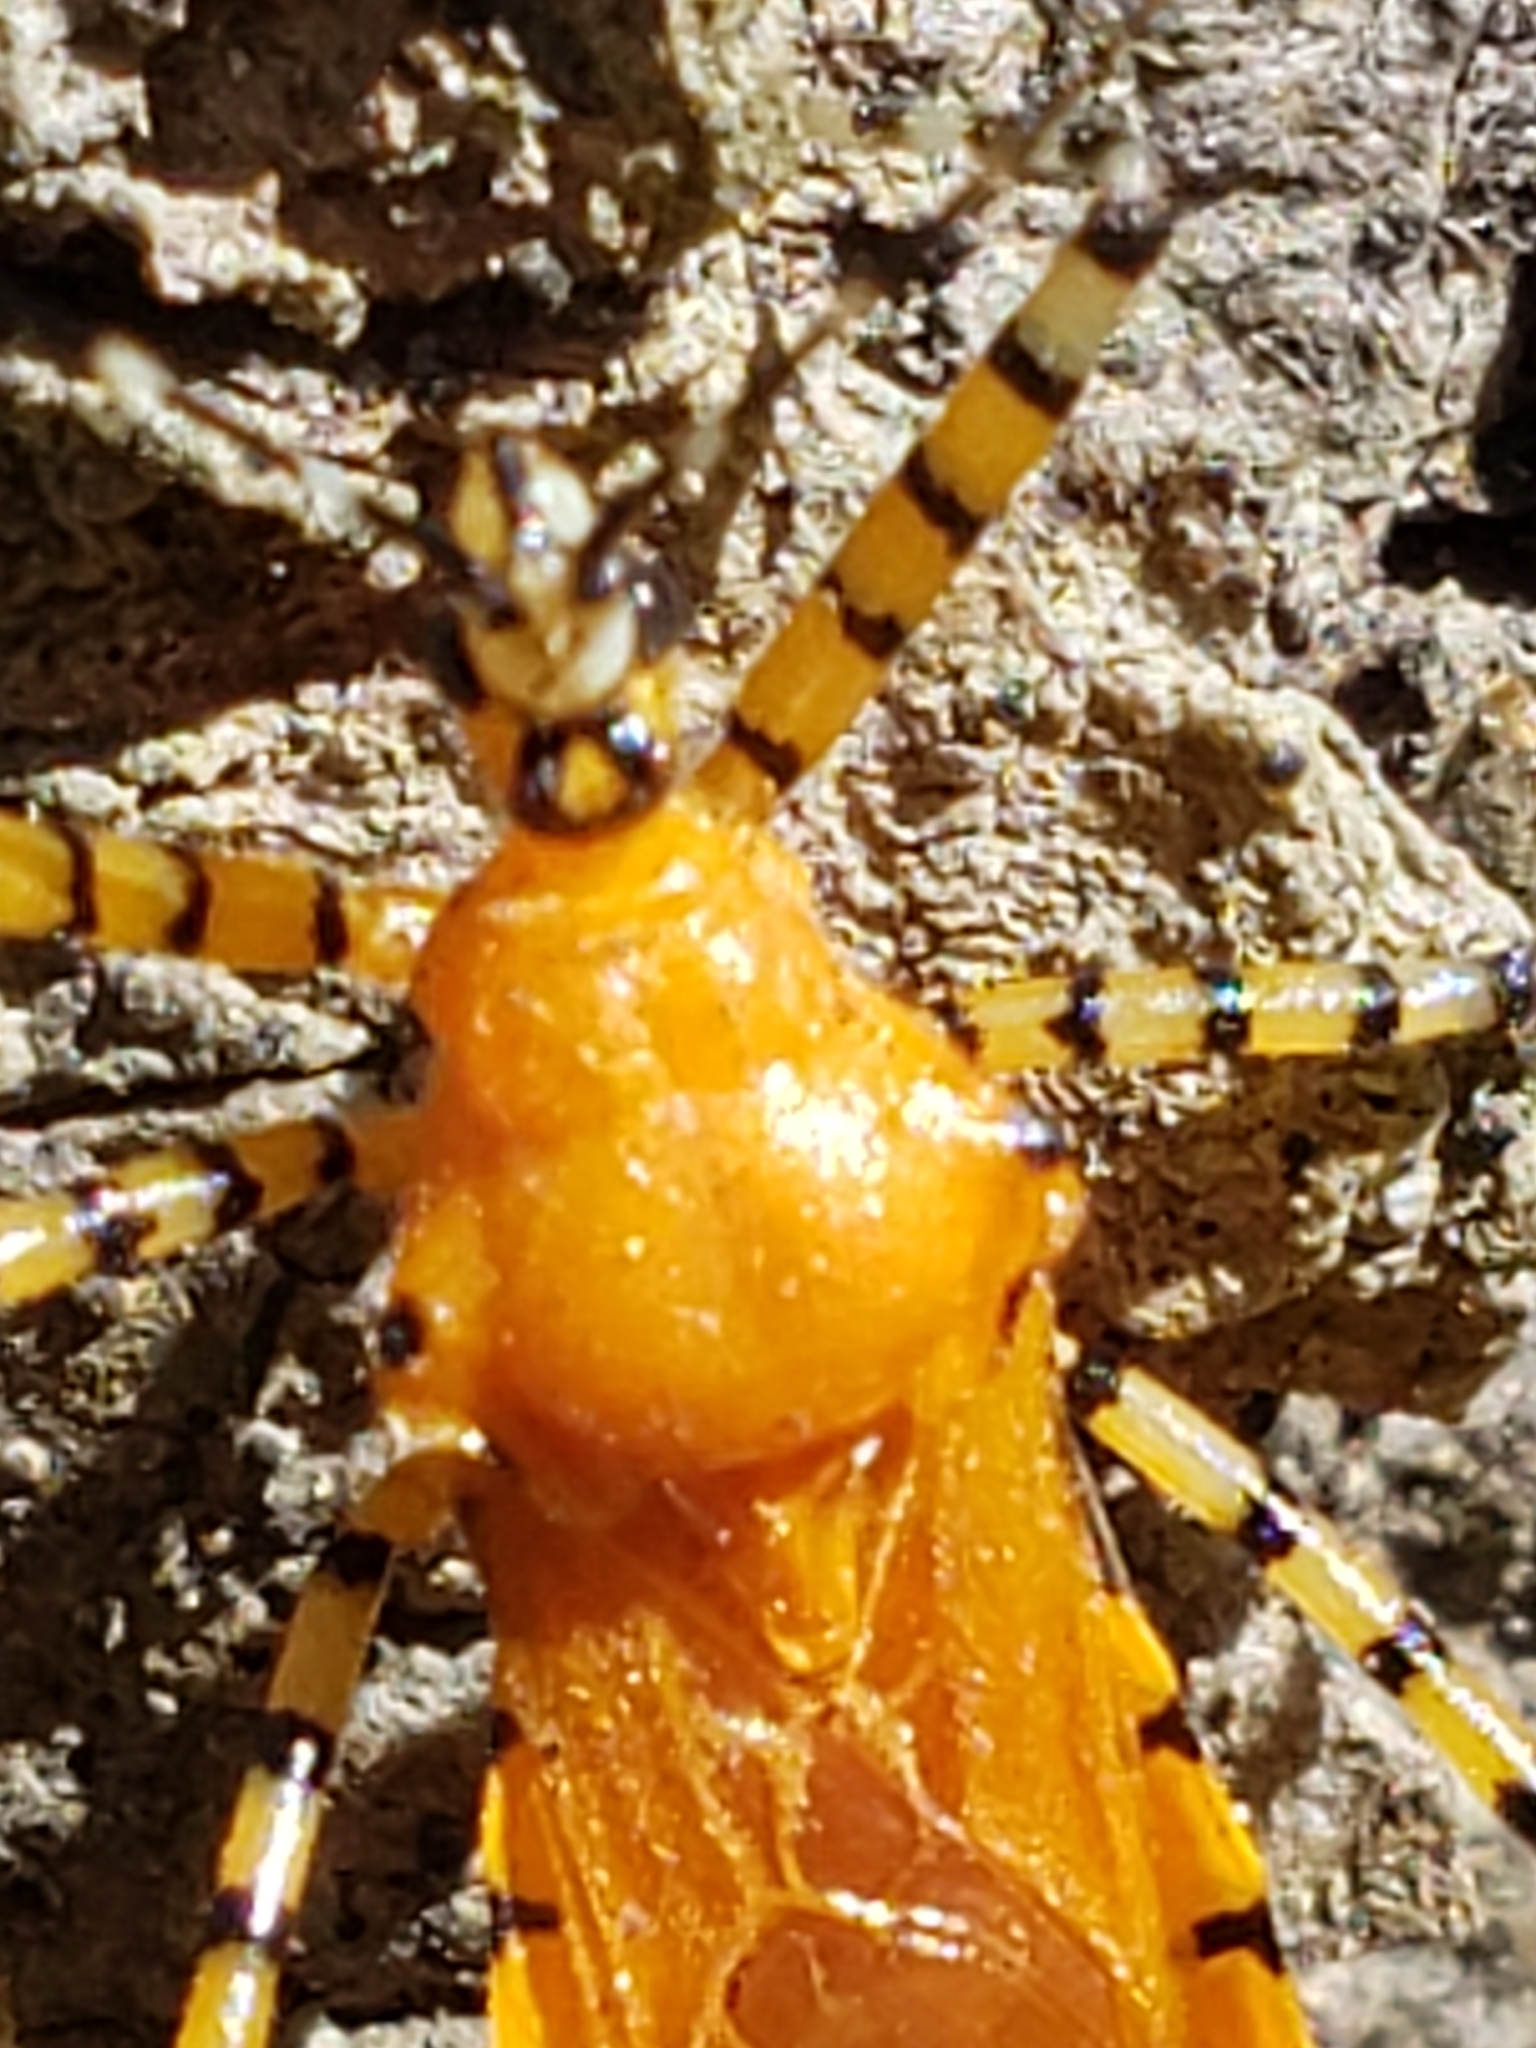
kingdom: Animalia
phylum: Arthropoda
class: Insecta
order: Hemiptera
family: Reduviidae
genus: Pselliopus
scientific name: Pselliopus barberi
